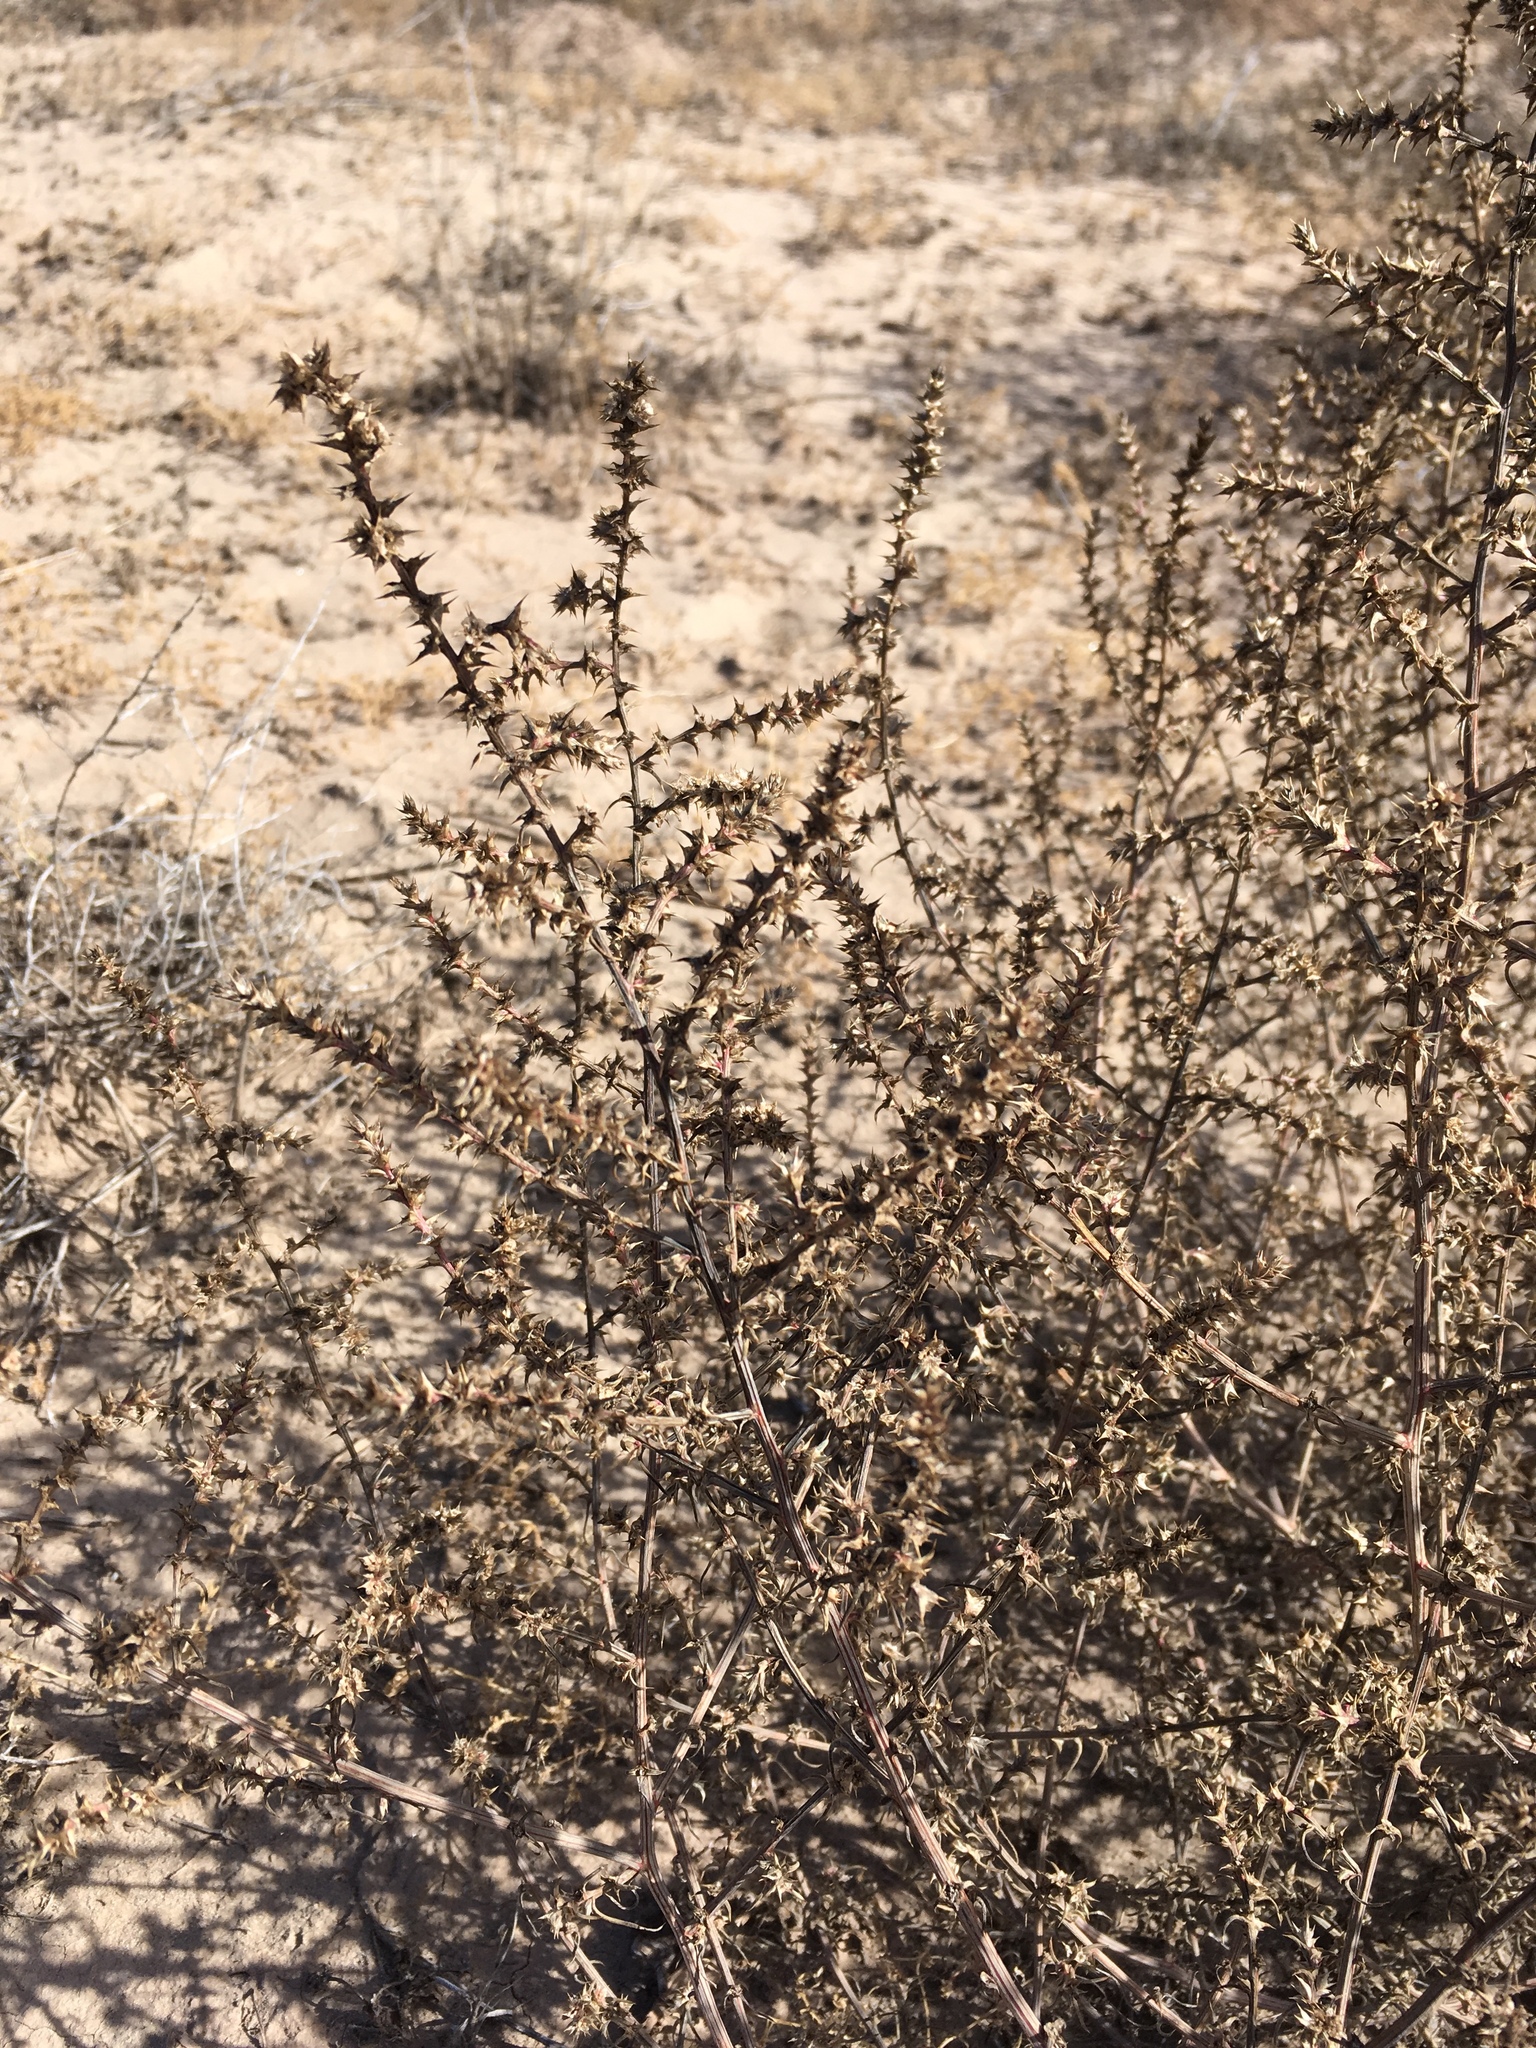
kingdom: Plantae
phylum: Tracheophyta
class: Magnoliopsida
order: Caryophyllales
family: Amaranthaceae
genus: Salsola
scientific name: Salsola tragus
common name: Prickly russian thistle
